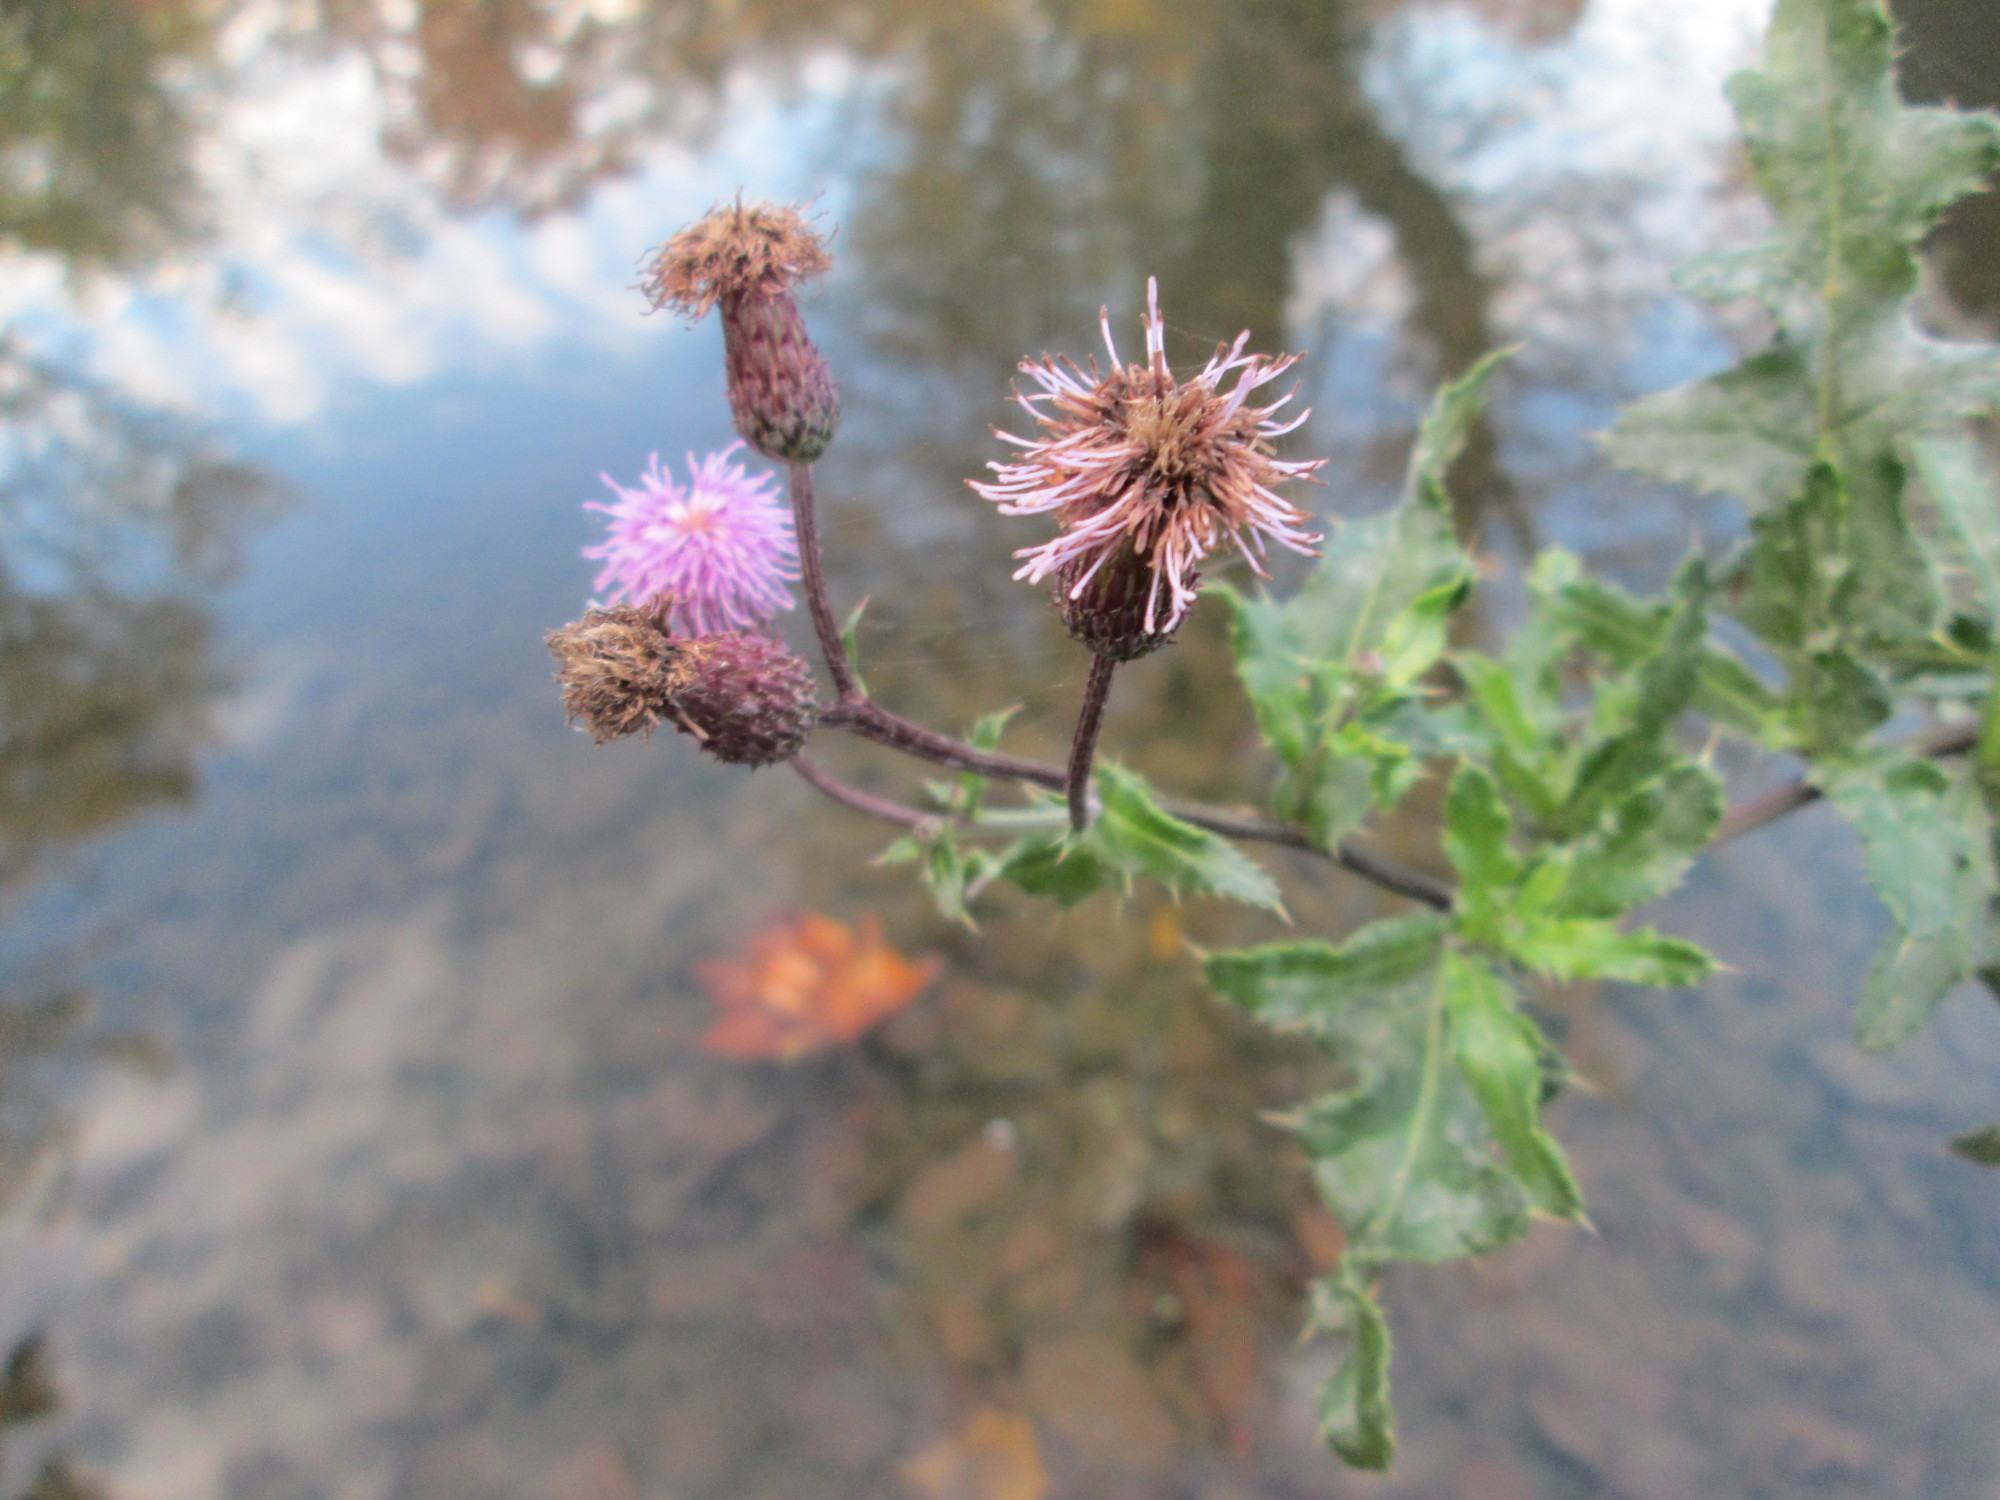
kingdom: Plantae
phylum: Tracheophyta
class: Magnoliopsida
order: Asterales
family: Asteraceae
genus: Cirsium
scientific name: Cirsium arvense
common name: Creeping thistle
